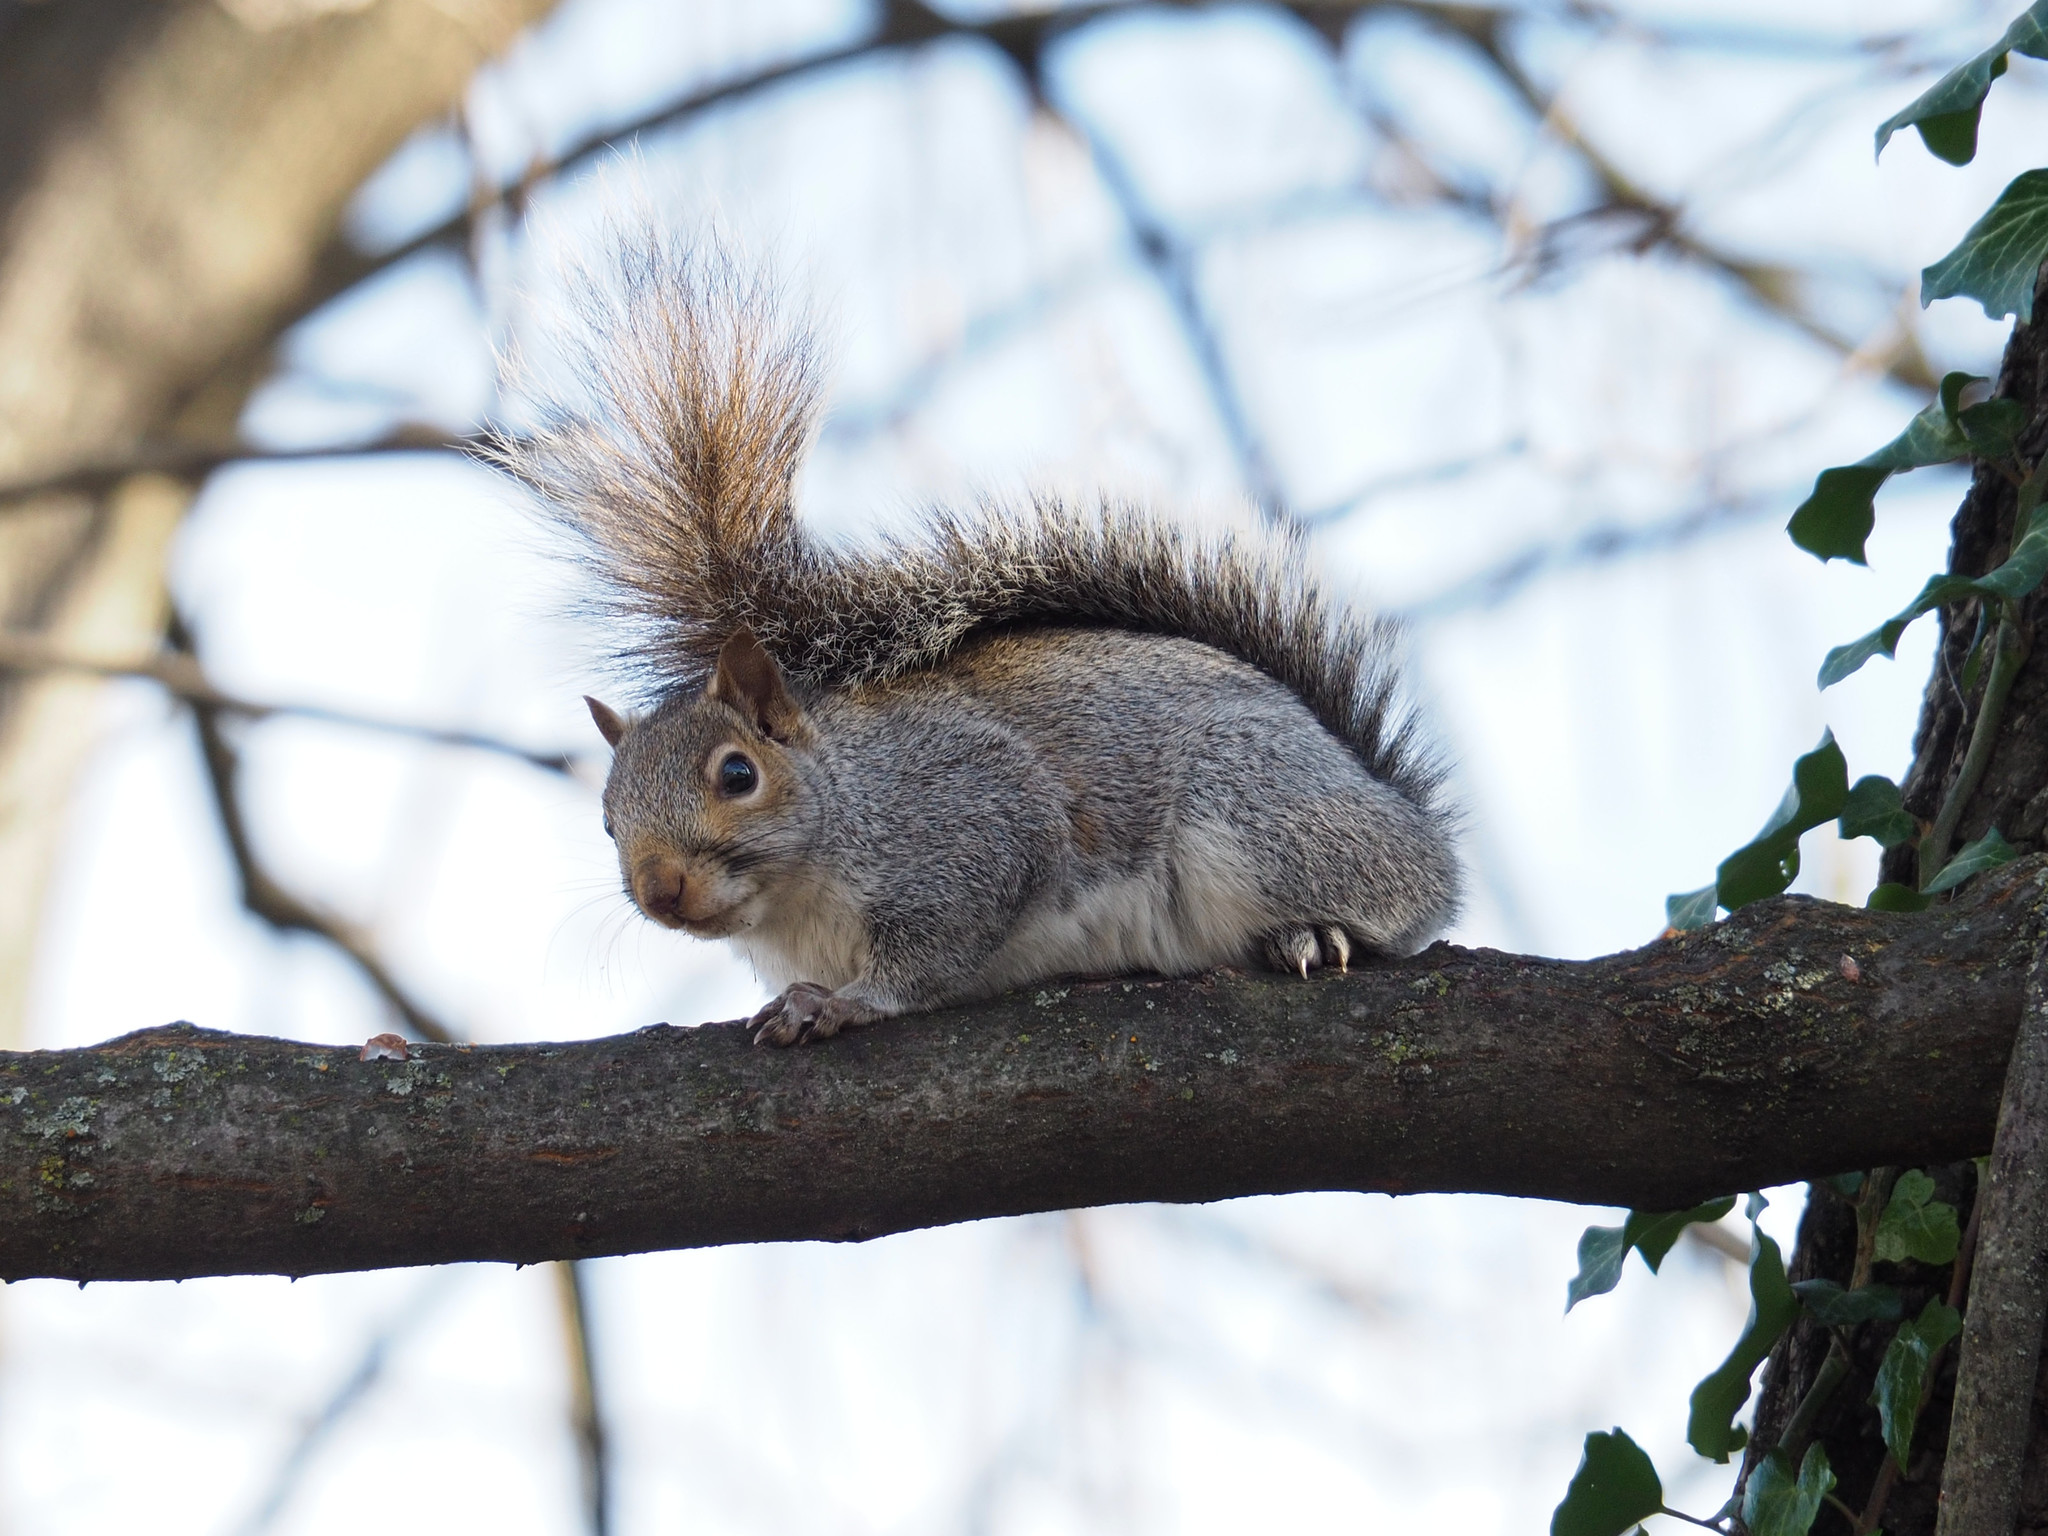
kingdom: Animalia
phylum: Chordata
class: Mammalia
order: Rodentia
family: Sciuridae
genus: Sciurus
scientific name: Sciurus carolinensis
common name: Eastern gray squirrel
